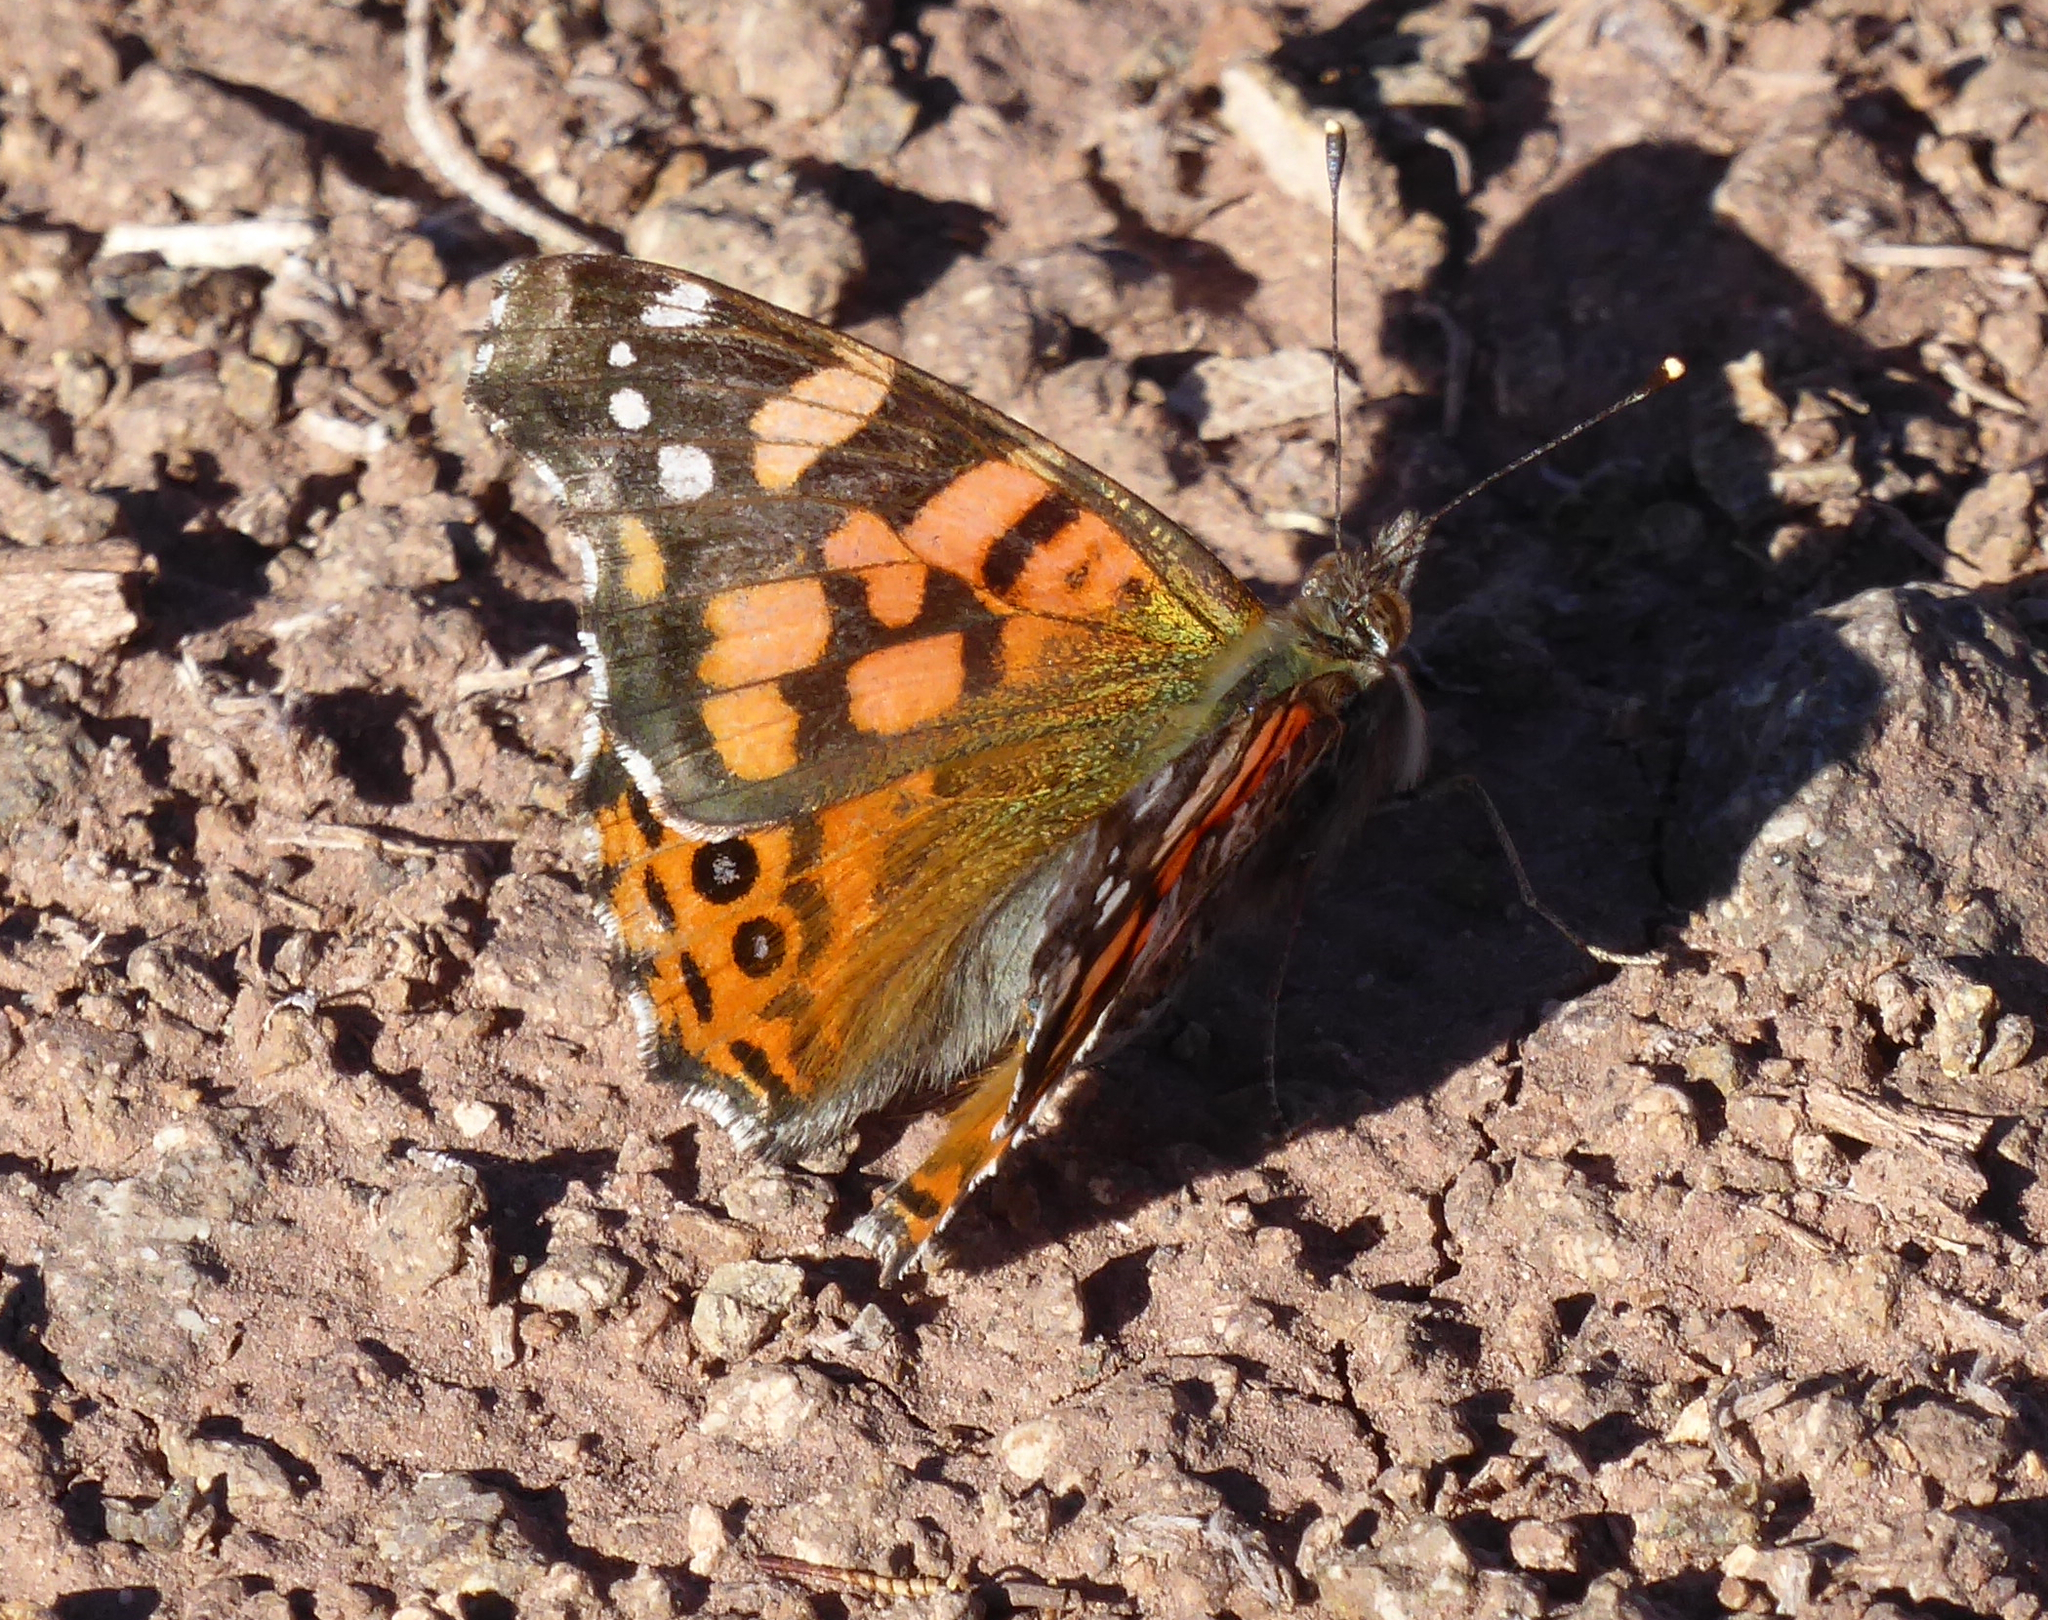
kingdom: Animalia
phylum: Arthropoda
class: Insecta
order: Lepidoptera
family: Nymphalidae
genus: Vanessa
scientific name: Vanessa carye
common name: Subtropical lady
